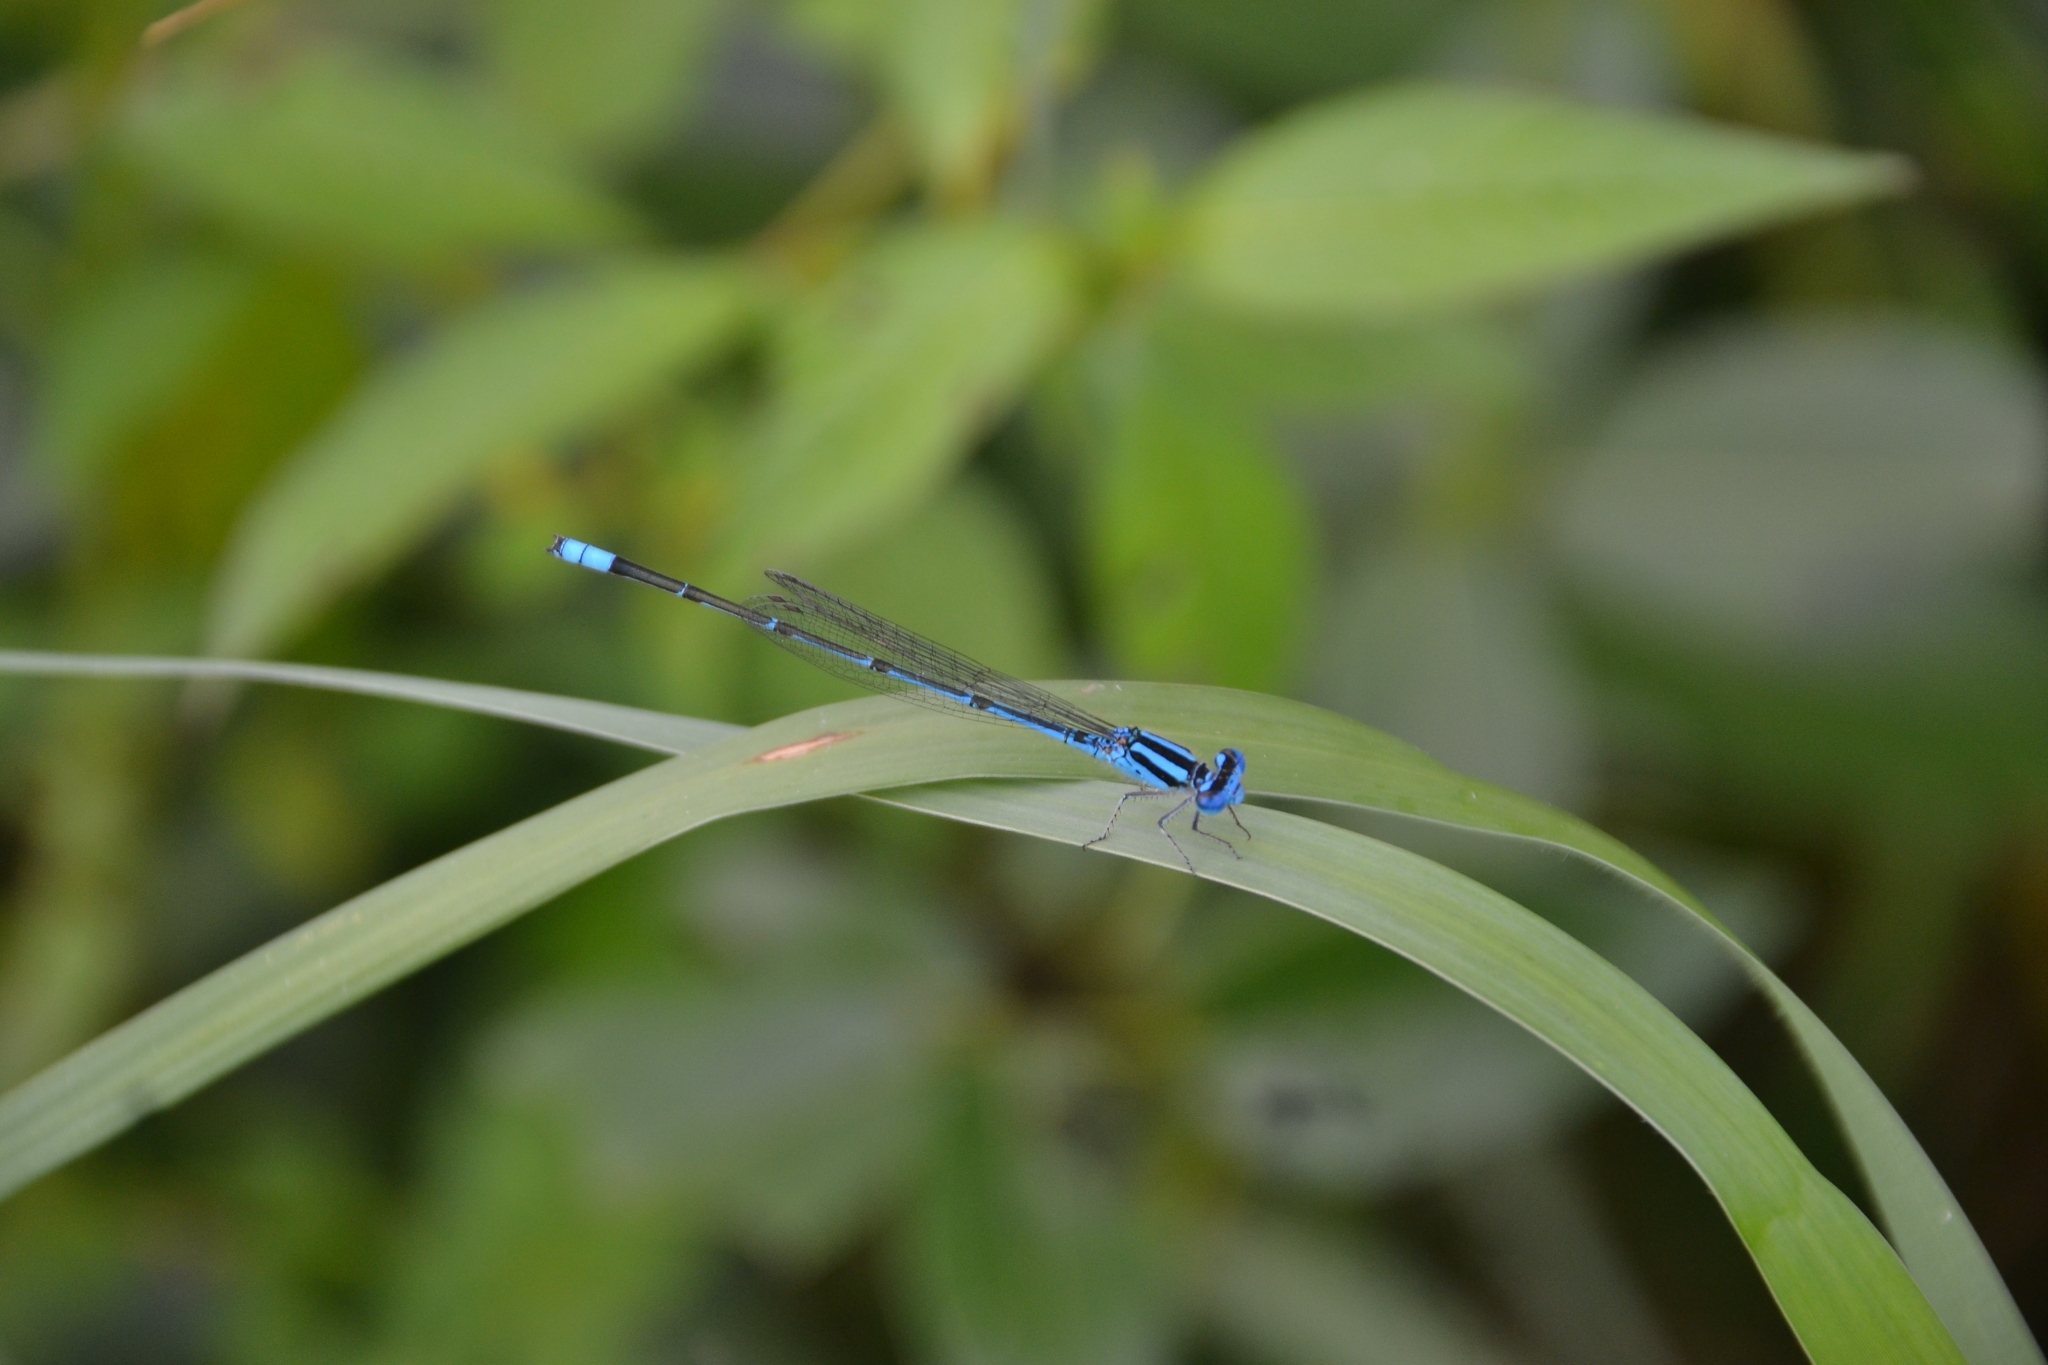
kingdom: Animalia
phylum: Arthropoda
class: Insecta
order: Odonata
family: Coenagrionidae
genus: Pseudagrion
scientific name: Pseudagrion malabaricum
